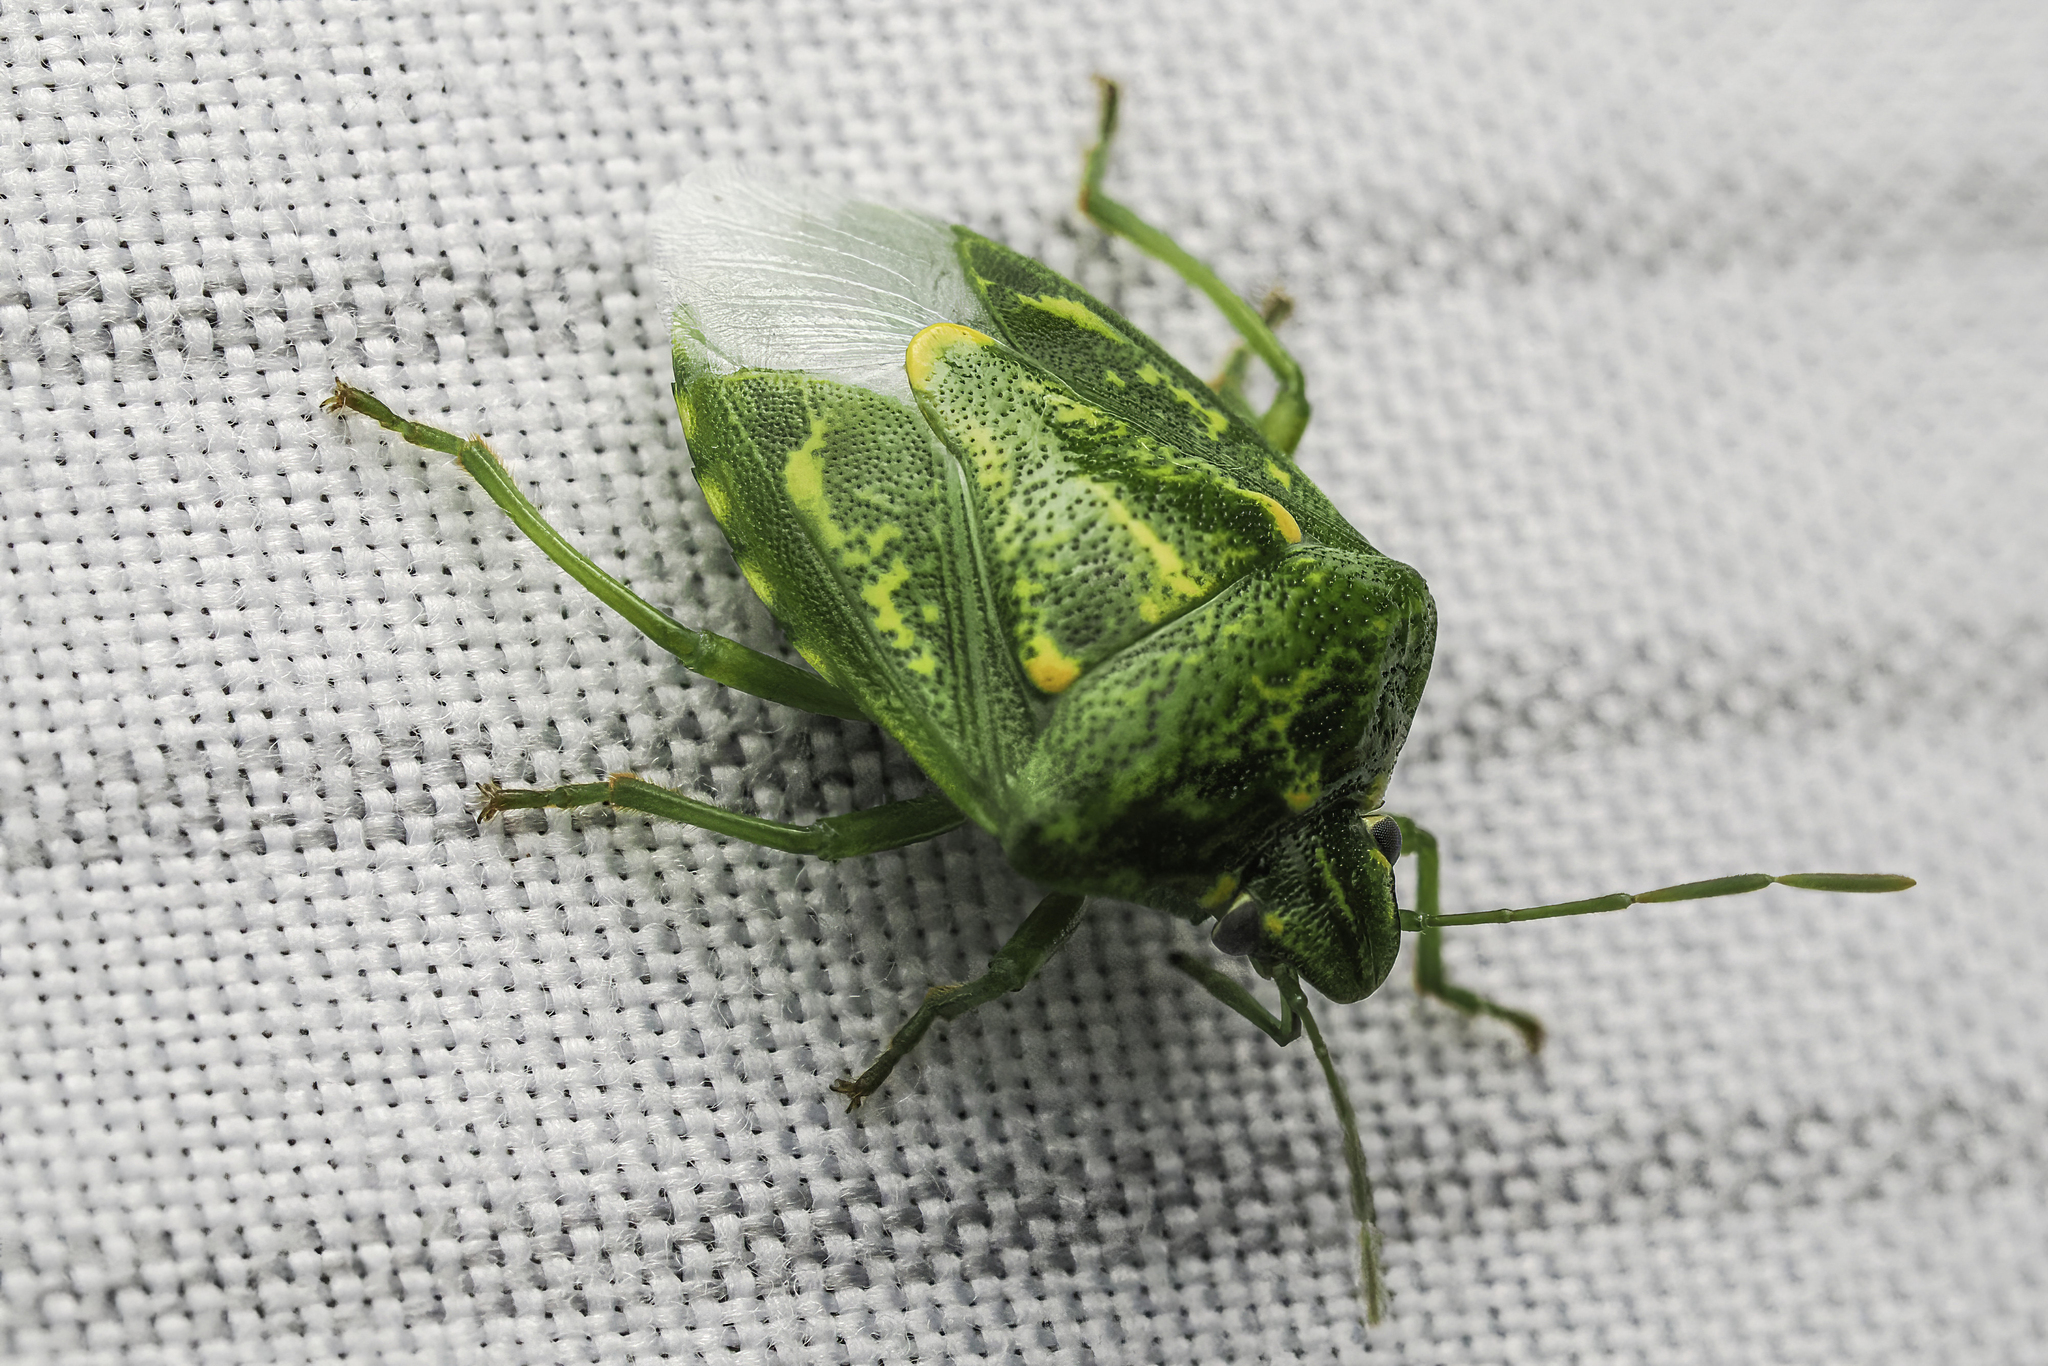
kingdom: Animalia
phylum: Arthropoda
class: Insecta
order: Hemiptera
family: Pentatomidae
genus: Banasa
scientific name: Banasa euchlora
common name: Cedar berry bug
